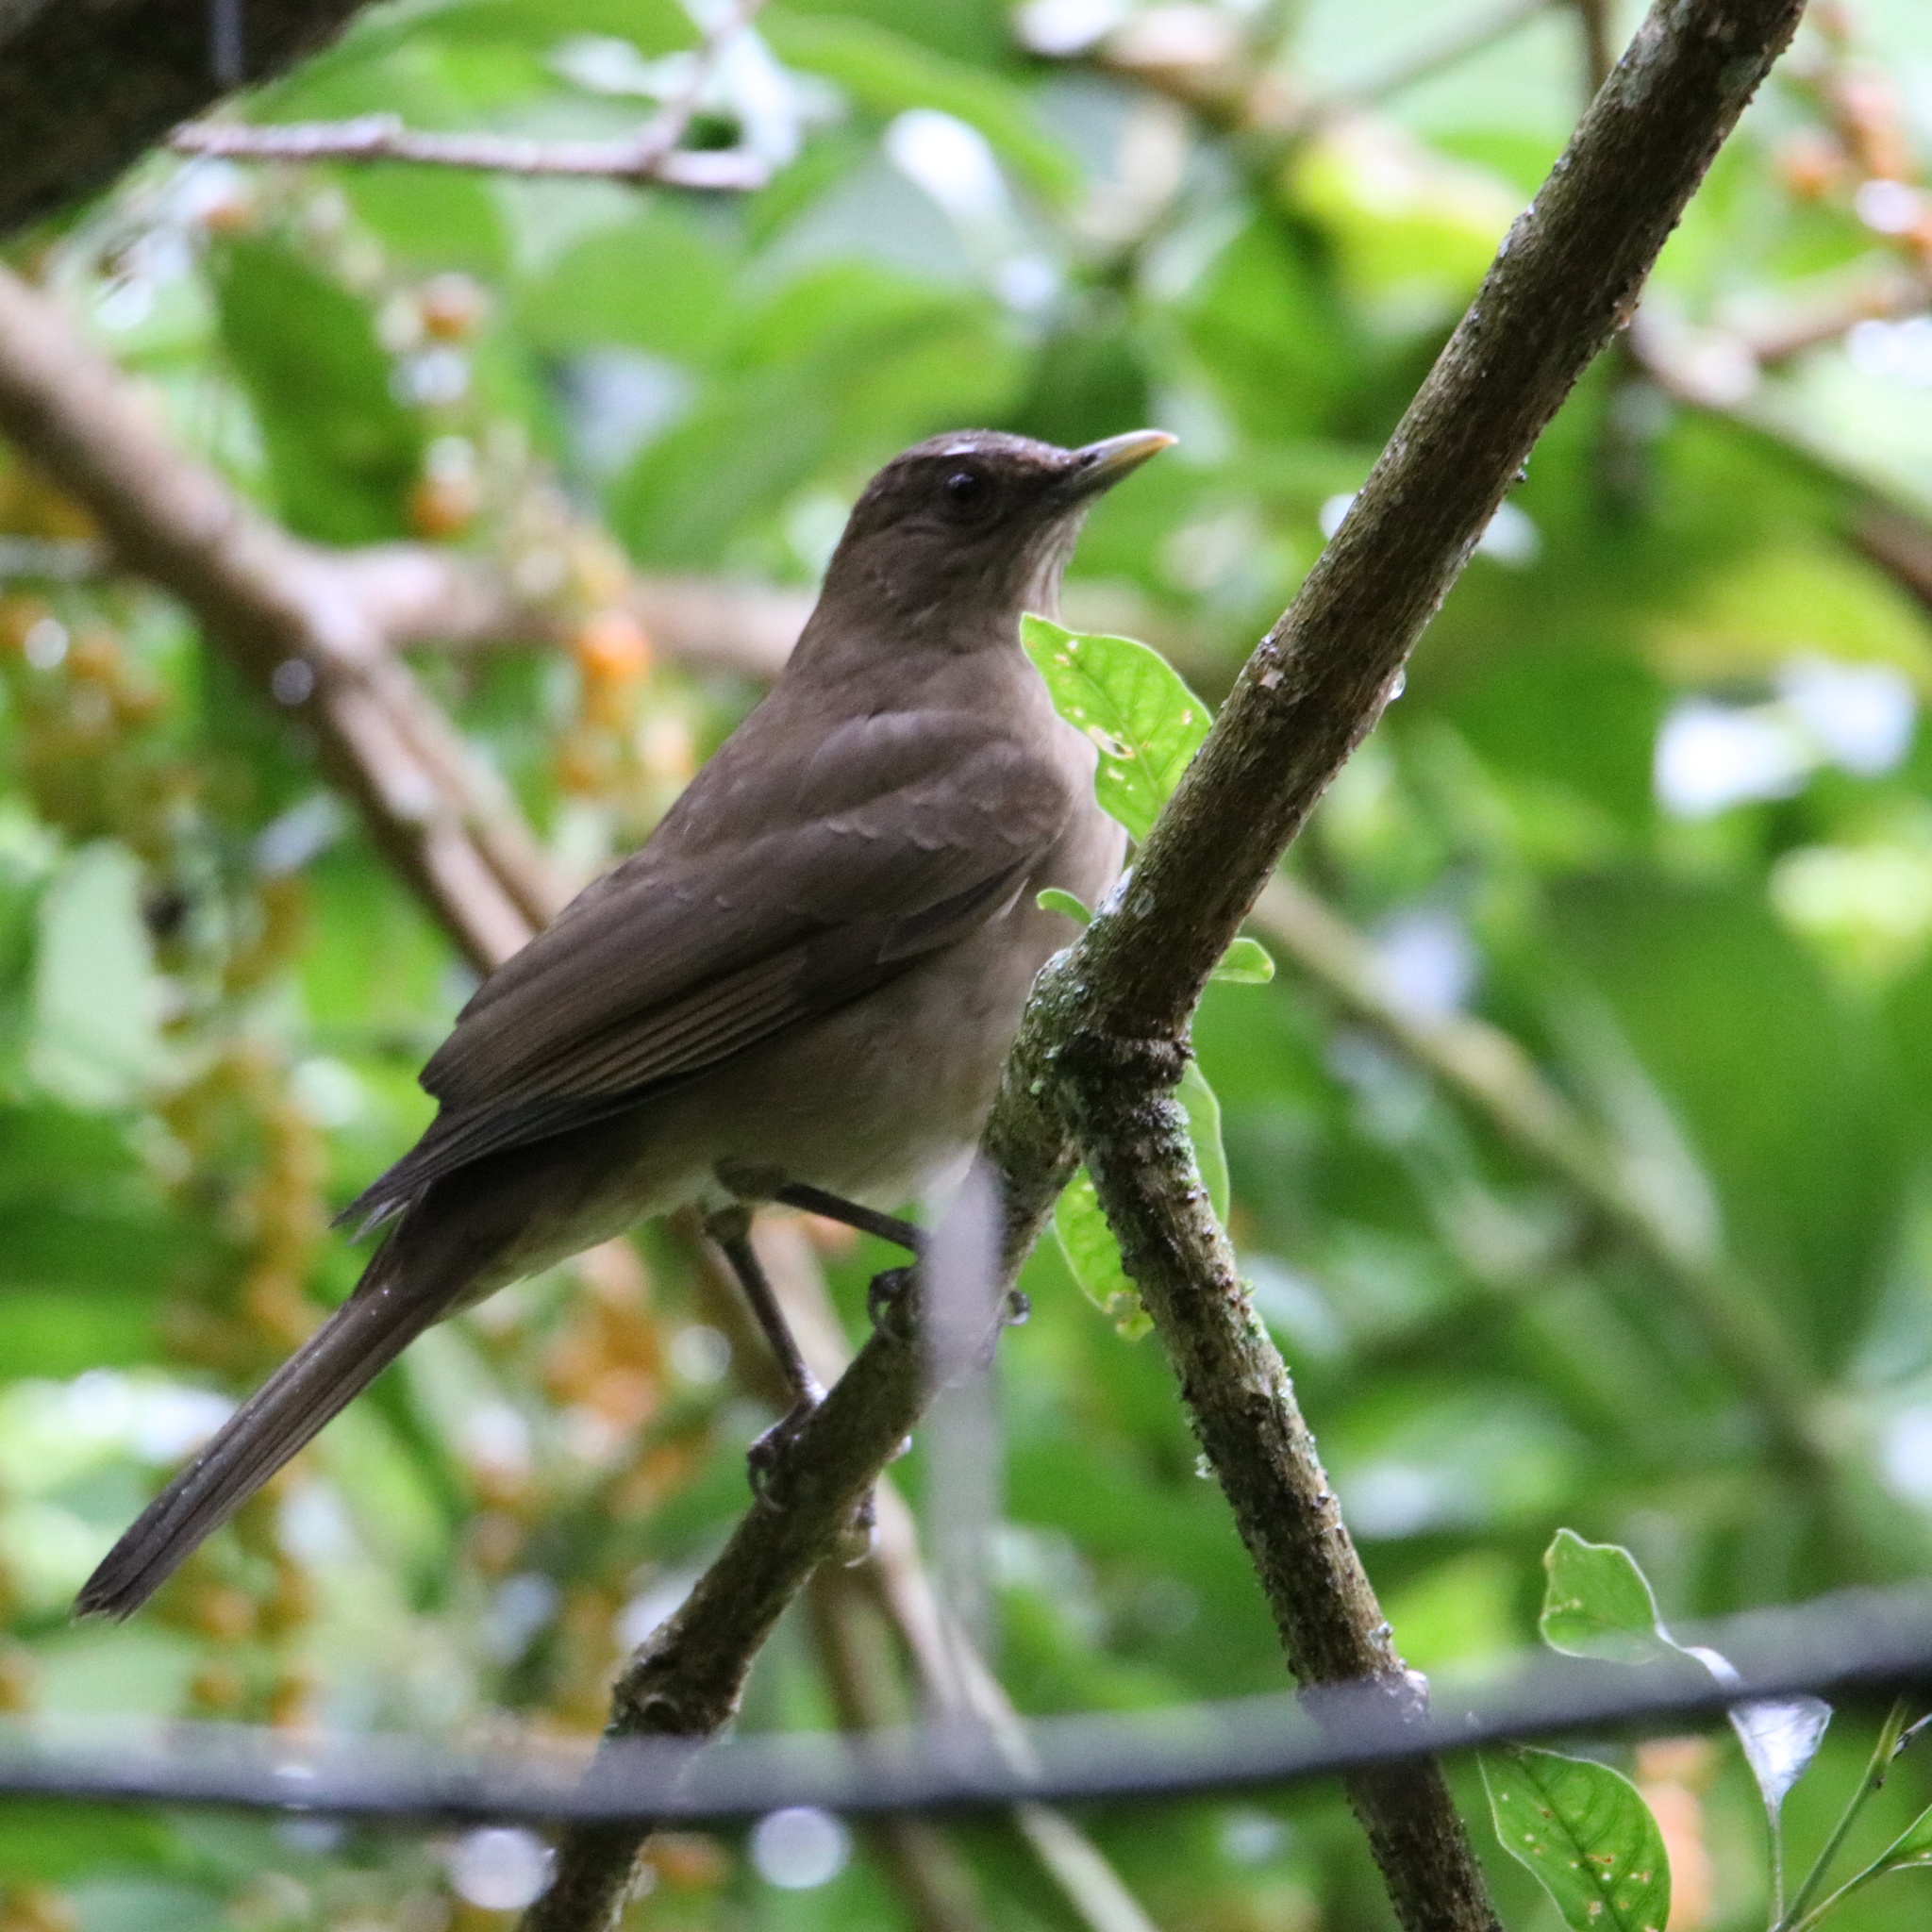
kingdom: Animalia
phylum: Chordata
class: Aves
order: Passeriformes
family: Turdidae
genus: Turdus
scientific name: Turdus grayi
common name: Clay-colored thrush
